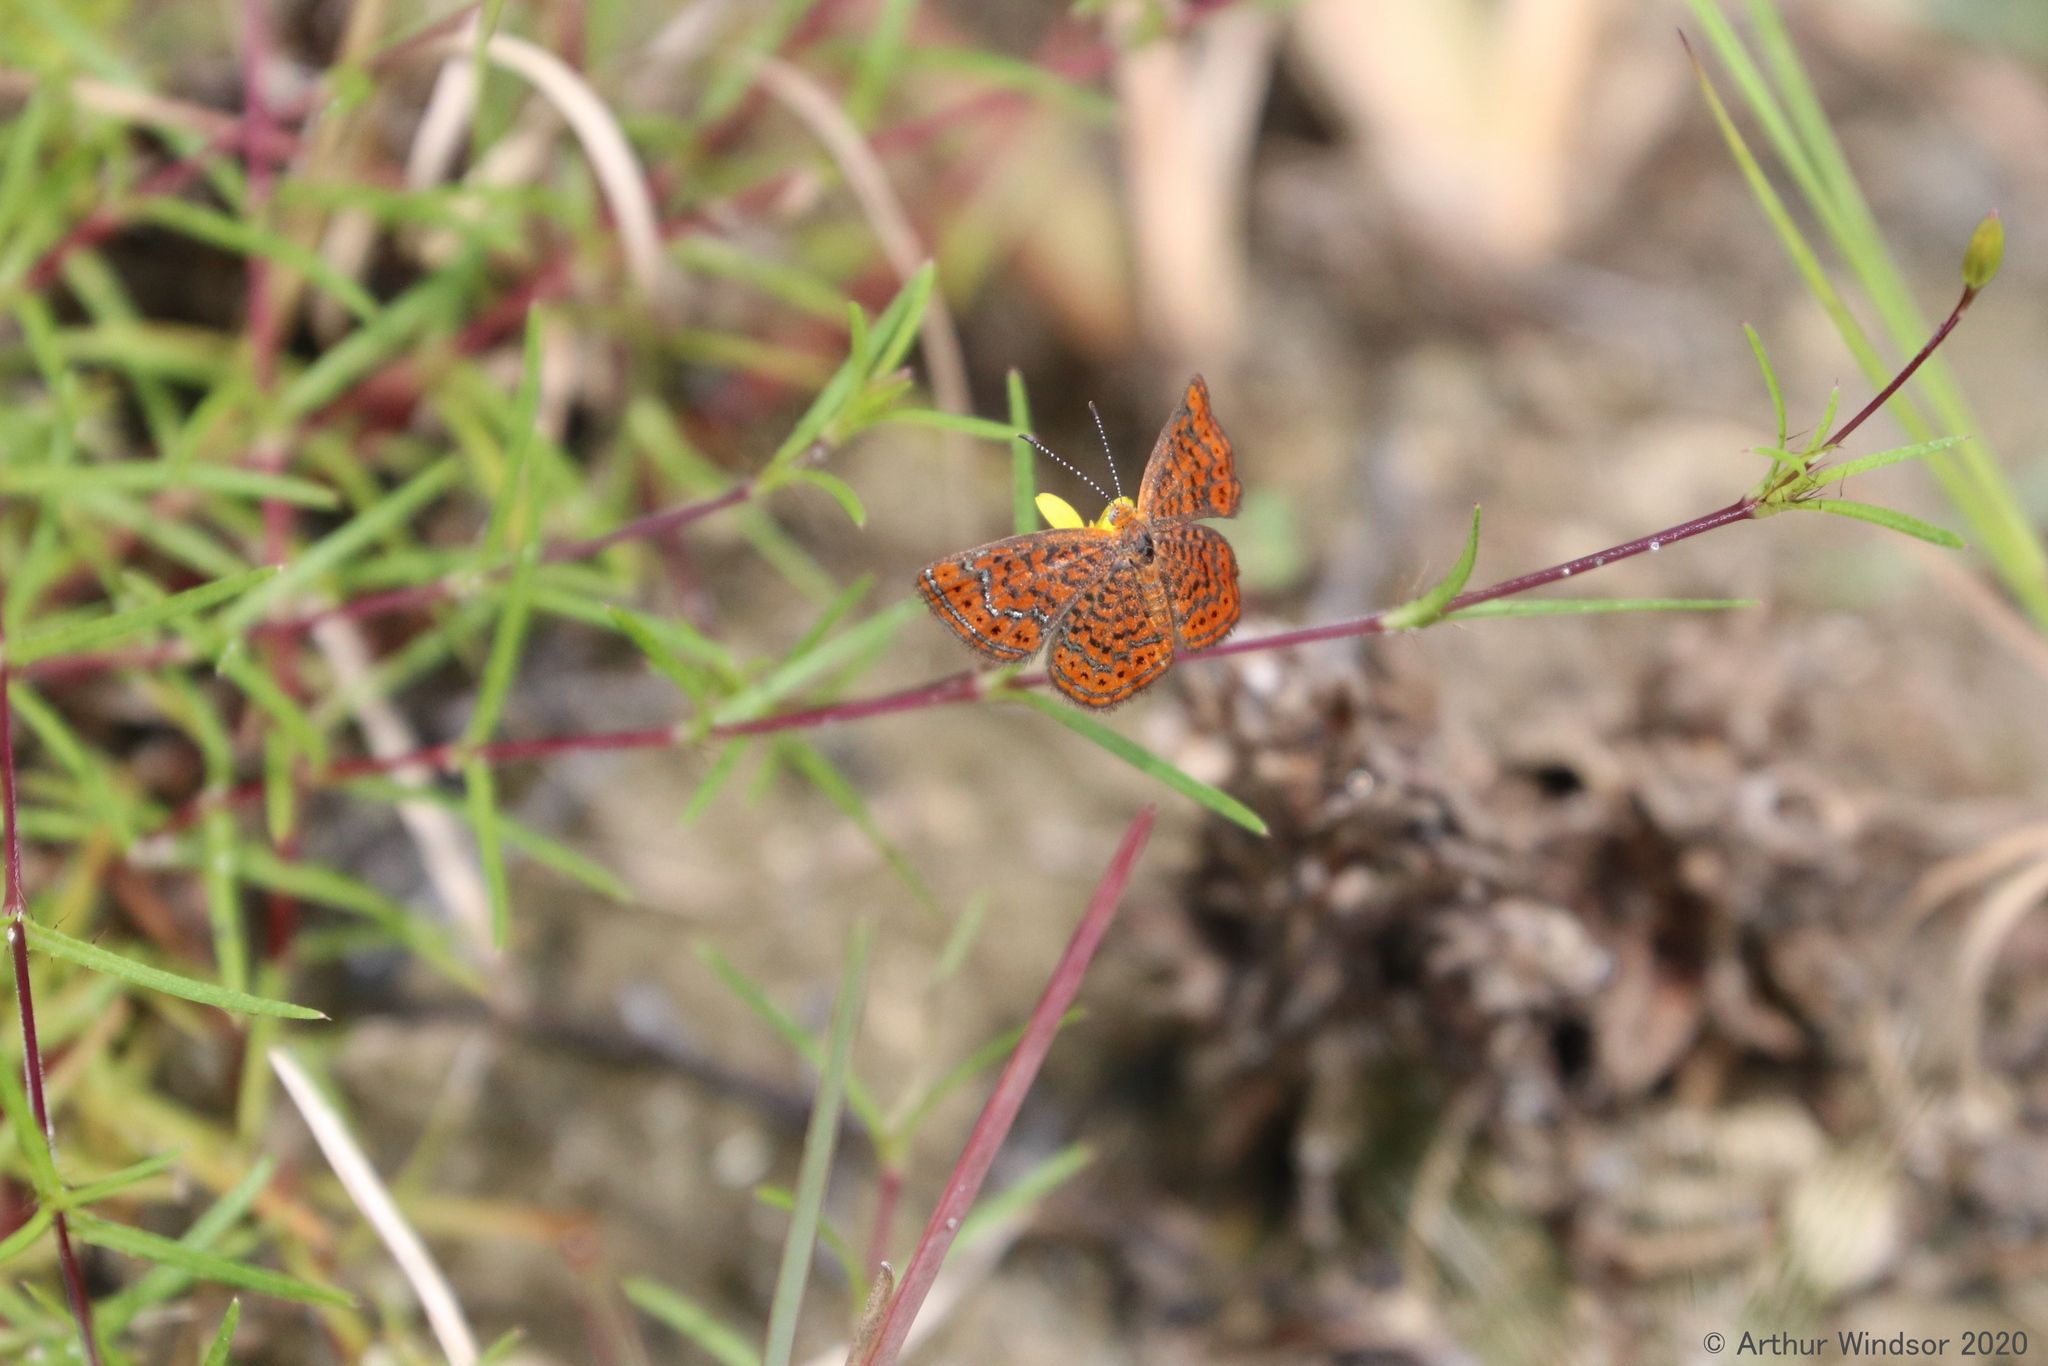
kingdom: Animalia
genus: Calephelis
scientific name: Calephelis virginiensis
